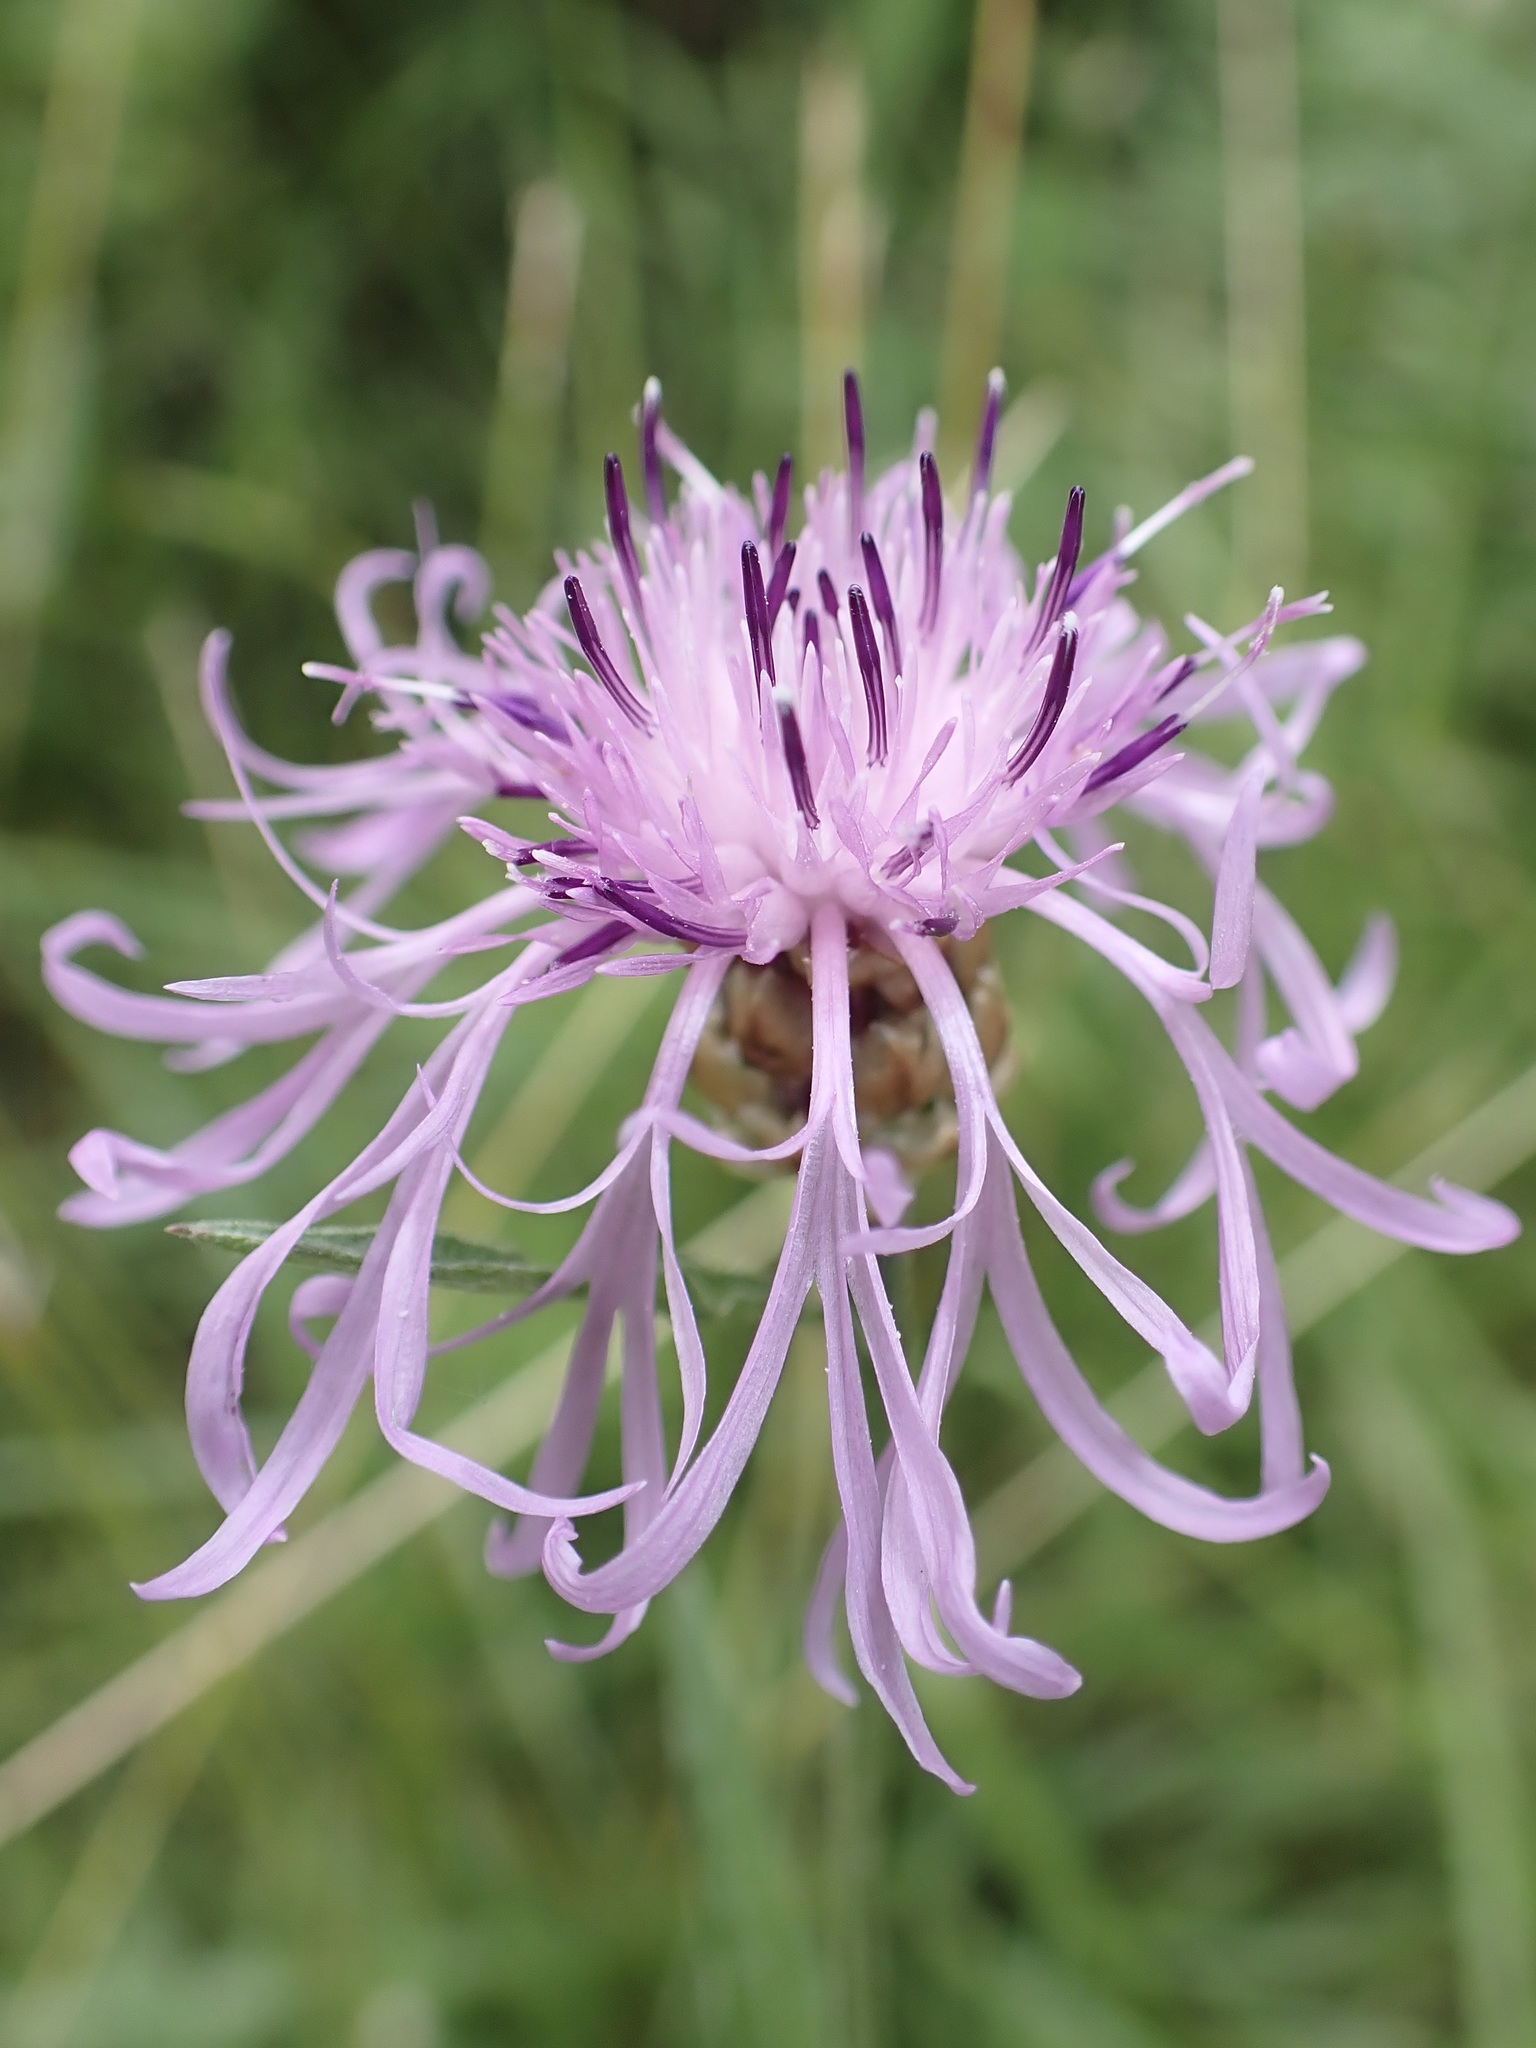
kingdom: Plantae
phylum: Tracheophyta
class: Magnoliopsida
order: Asterales
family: Asteraceae
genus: Centaurea
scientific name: Centaurea jacea
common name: Brown knapweed
